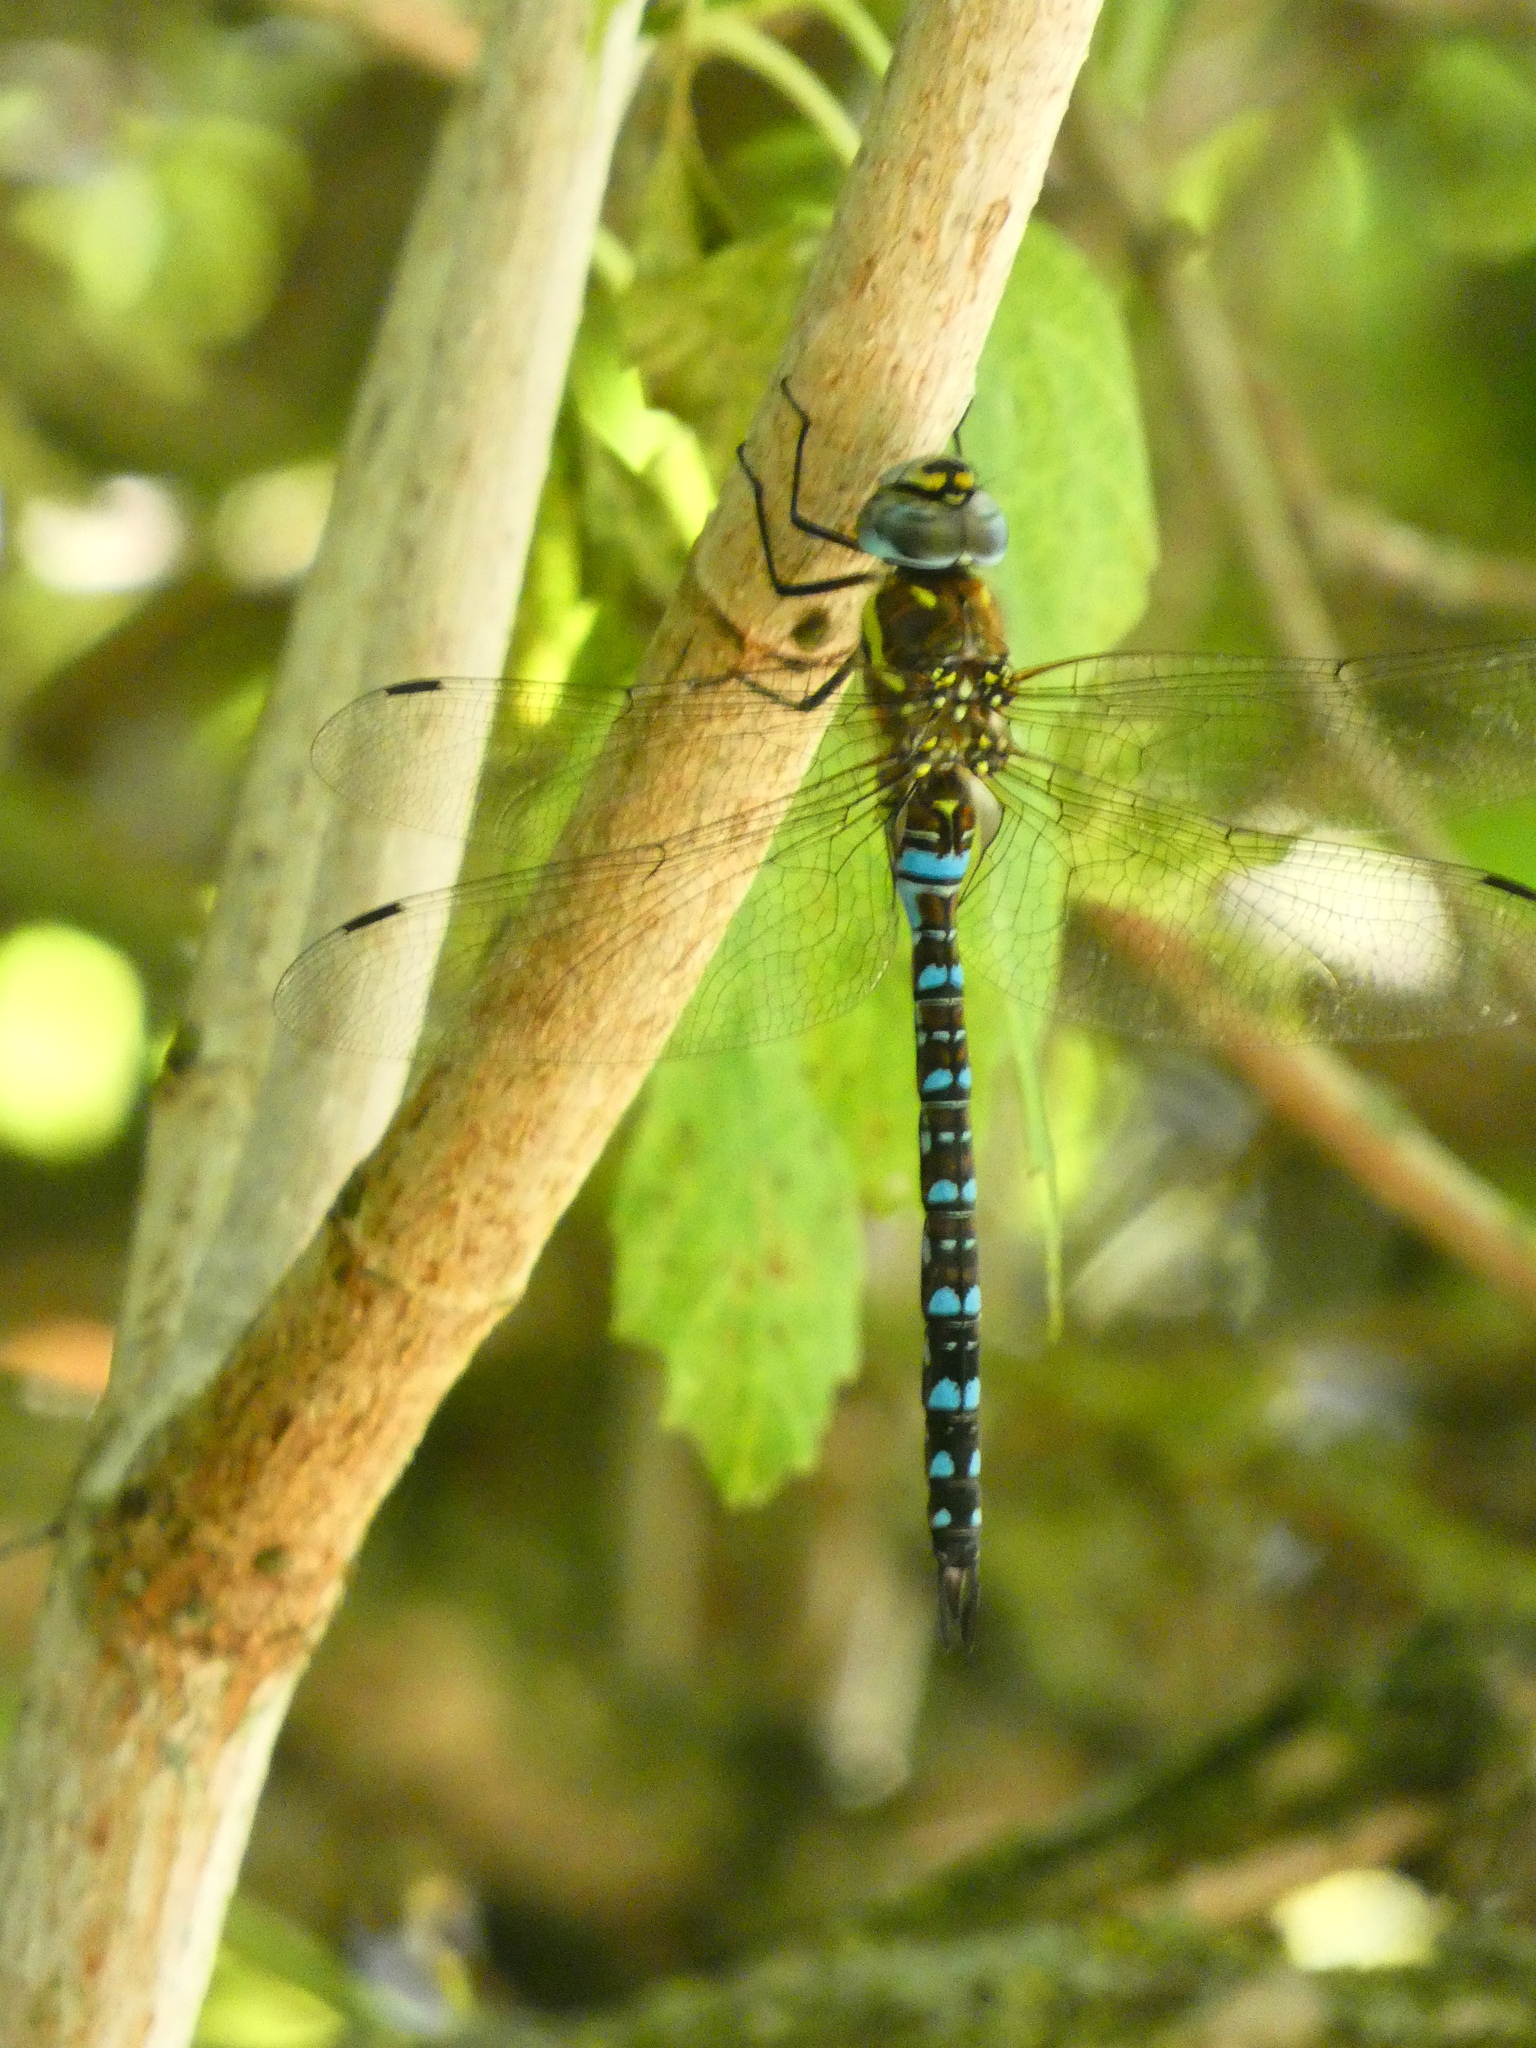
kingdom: Animalia
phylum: Arthropoda
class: Insecta
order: Odonata
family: Aeshnidae
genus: Aeshna
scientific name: Aeshna mixta
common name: Migrant hawker
